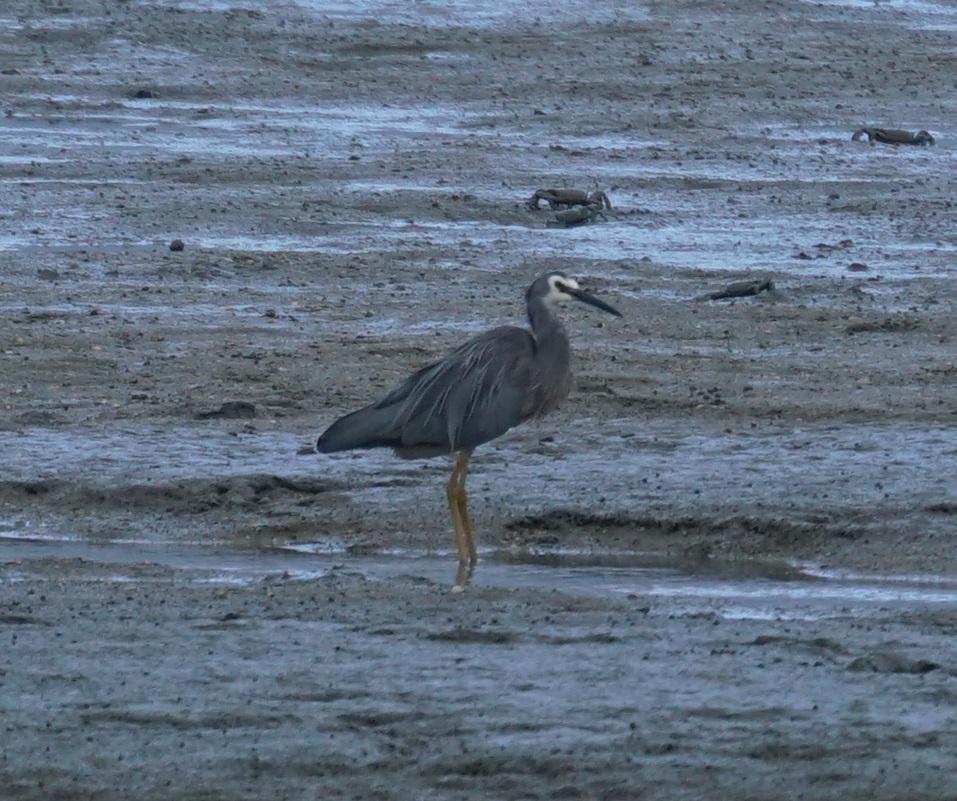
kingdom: Animalia
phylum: Chordata
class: Aves
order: Pelecaniformes
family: Ardeidae
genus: Egretta
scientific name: Egretta novaehollandiae
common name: White-faced heron
